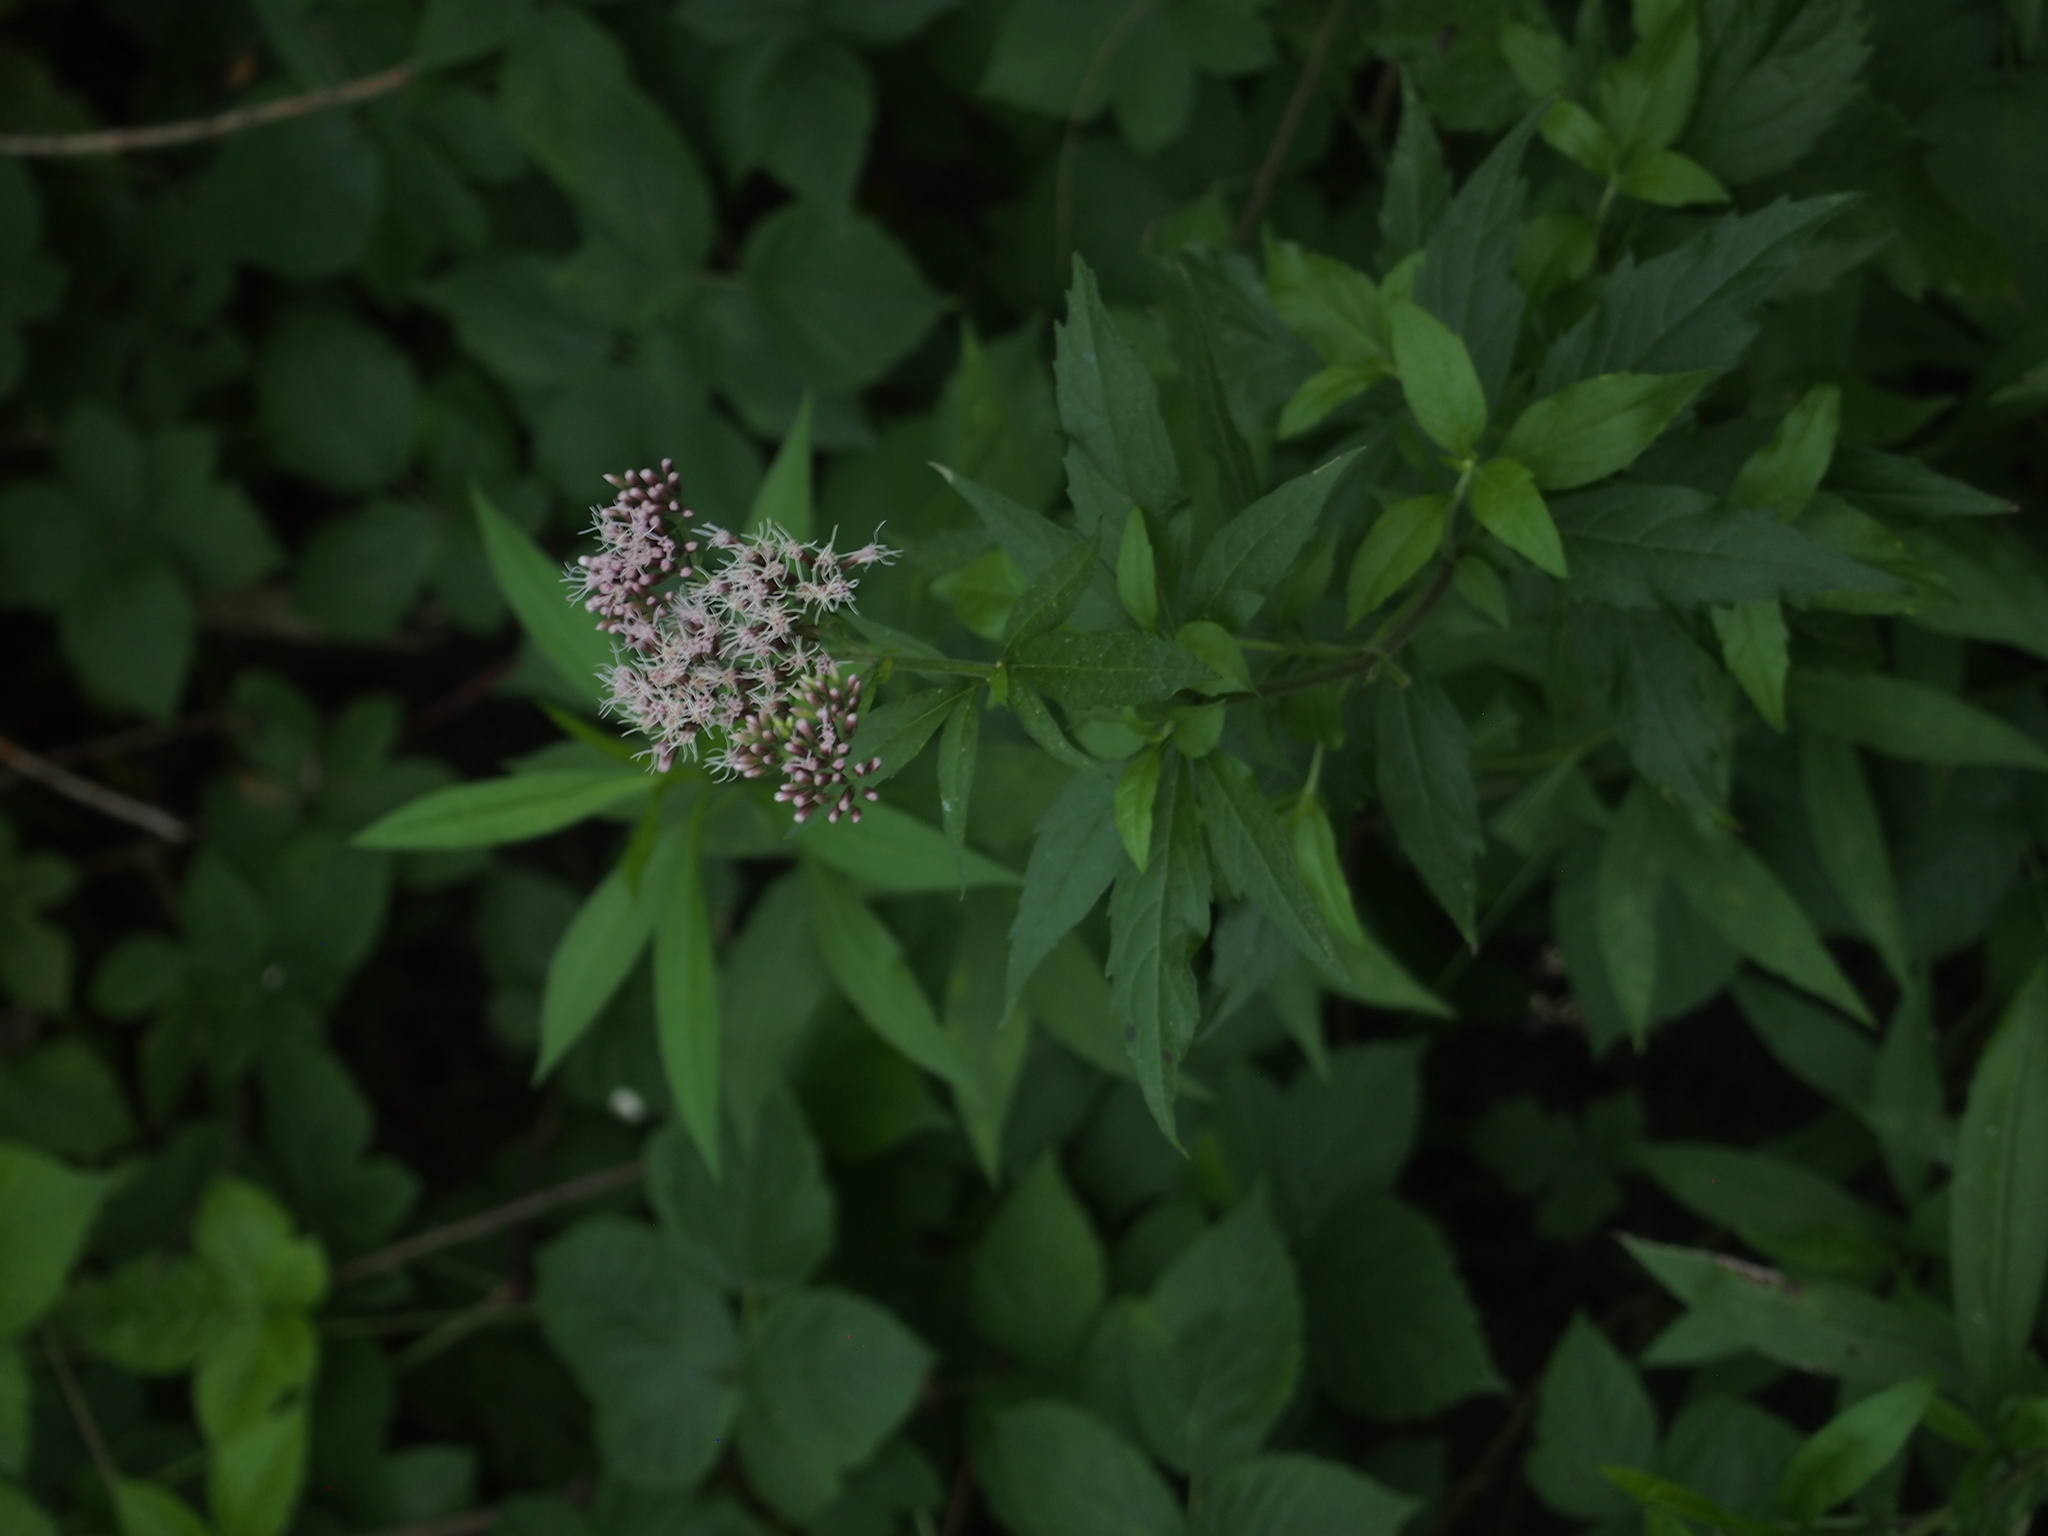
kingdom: Plantae
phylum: Tracheophyta
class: Magnoliopsida
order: Asterales
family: Asteraceae
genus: Eupatorium
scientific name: Eupatorium cannabinum
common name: Hemp-agrimony
